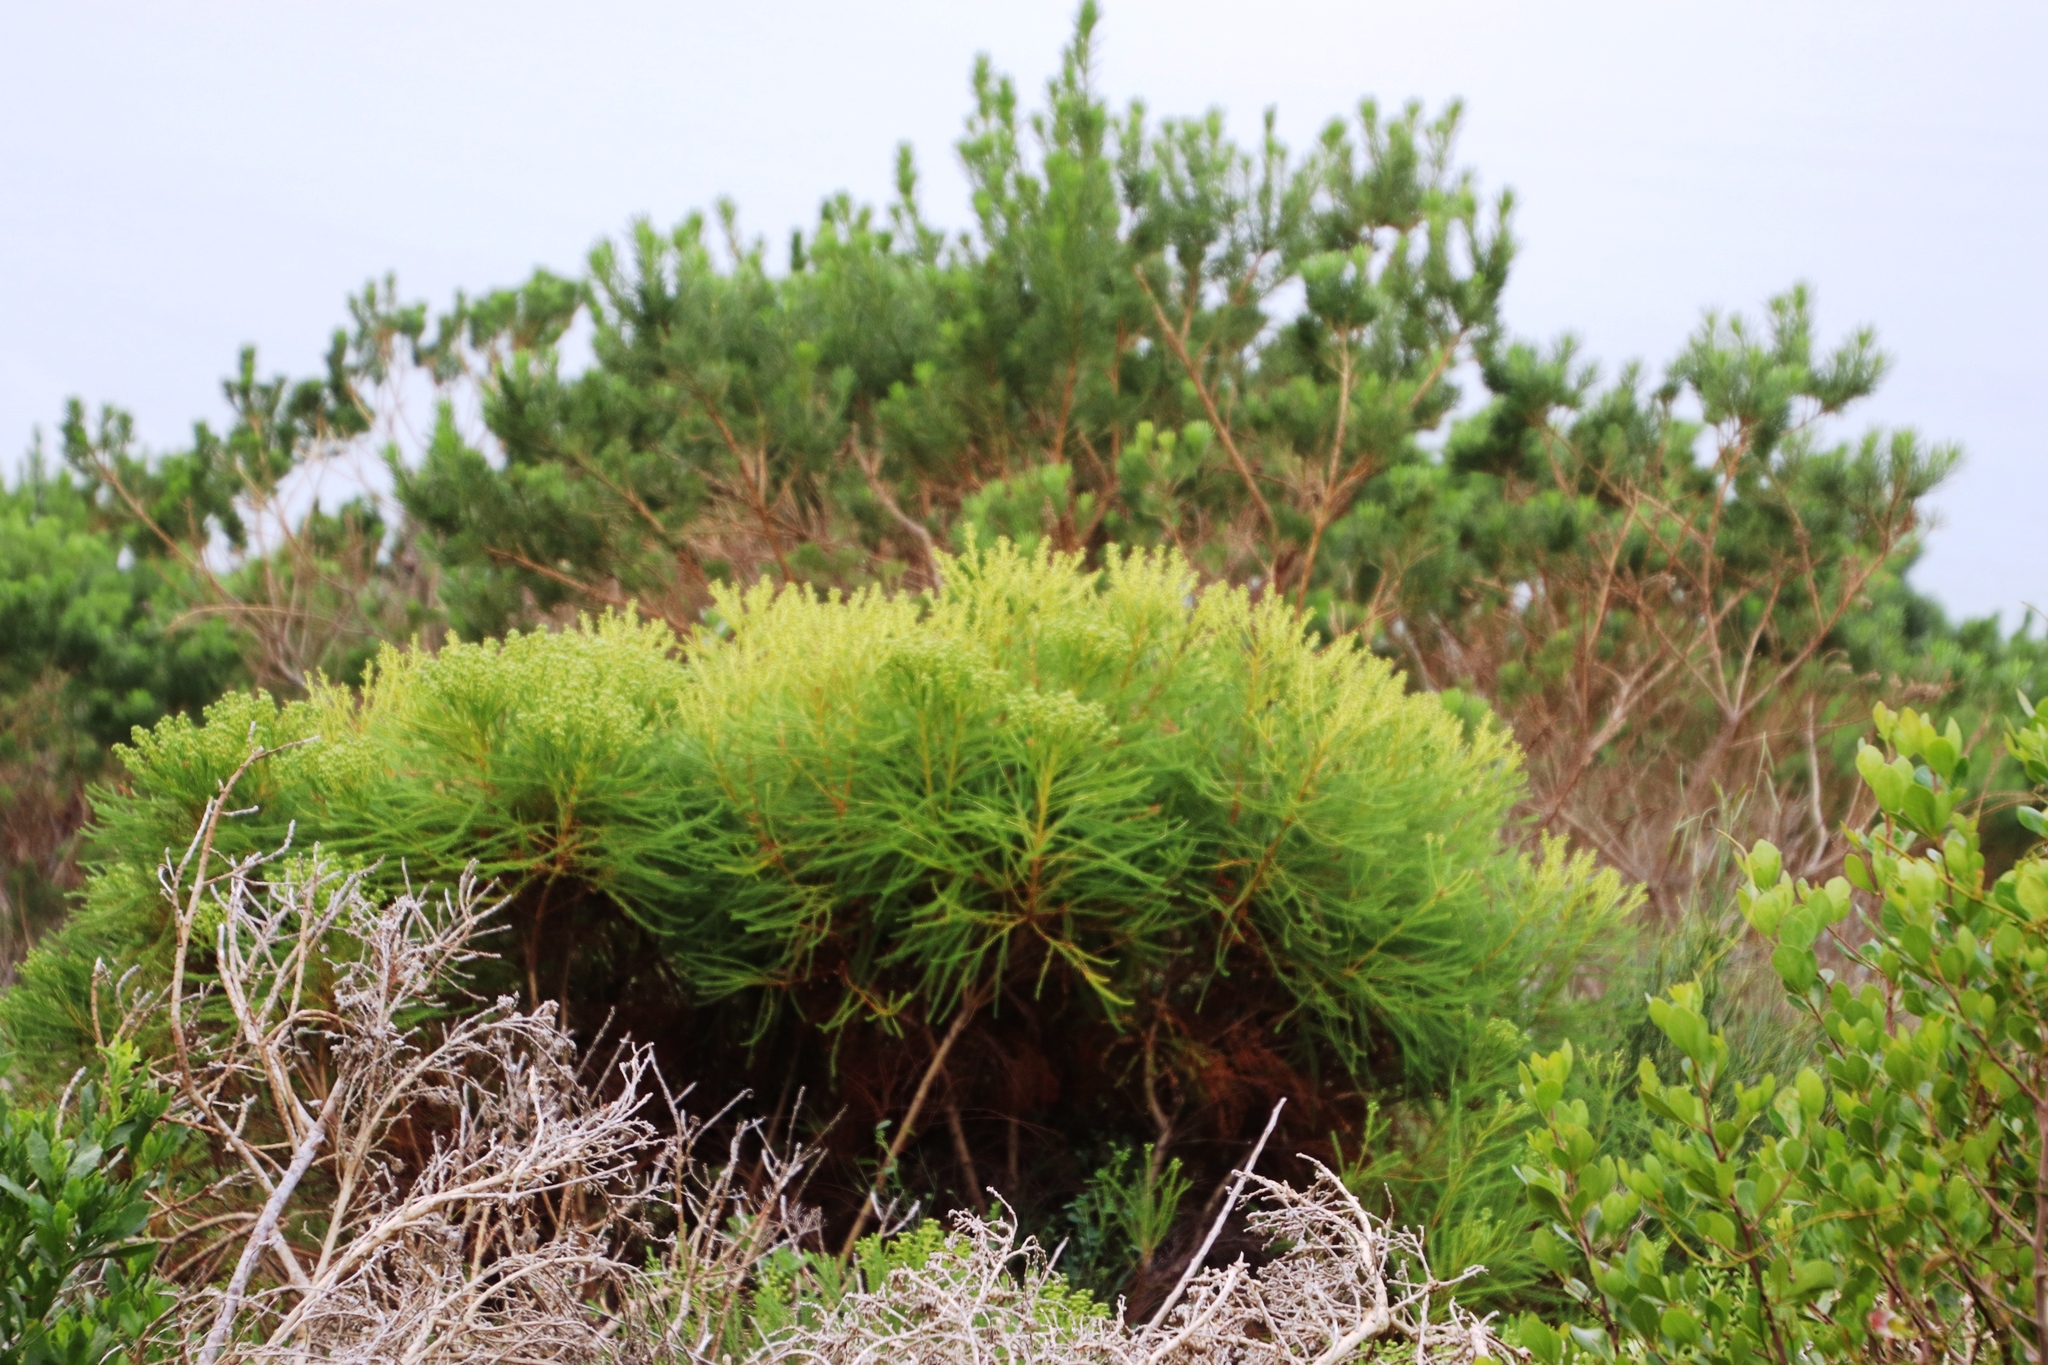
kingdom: Plantae
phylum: Tracheophyta
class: Magnoliopsida
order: Bruniales
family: Bruniaceae
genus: Berzelia
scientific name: Berzelia lanuginosa
